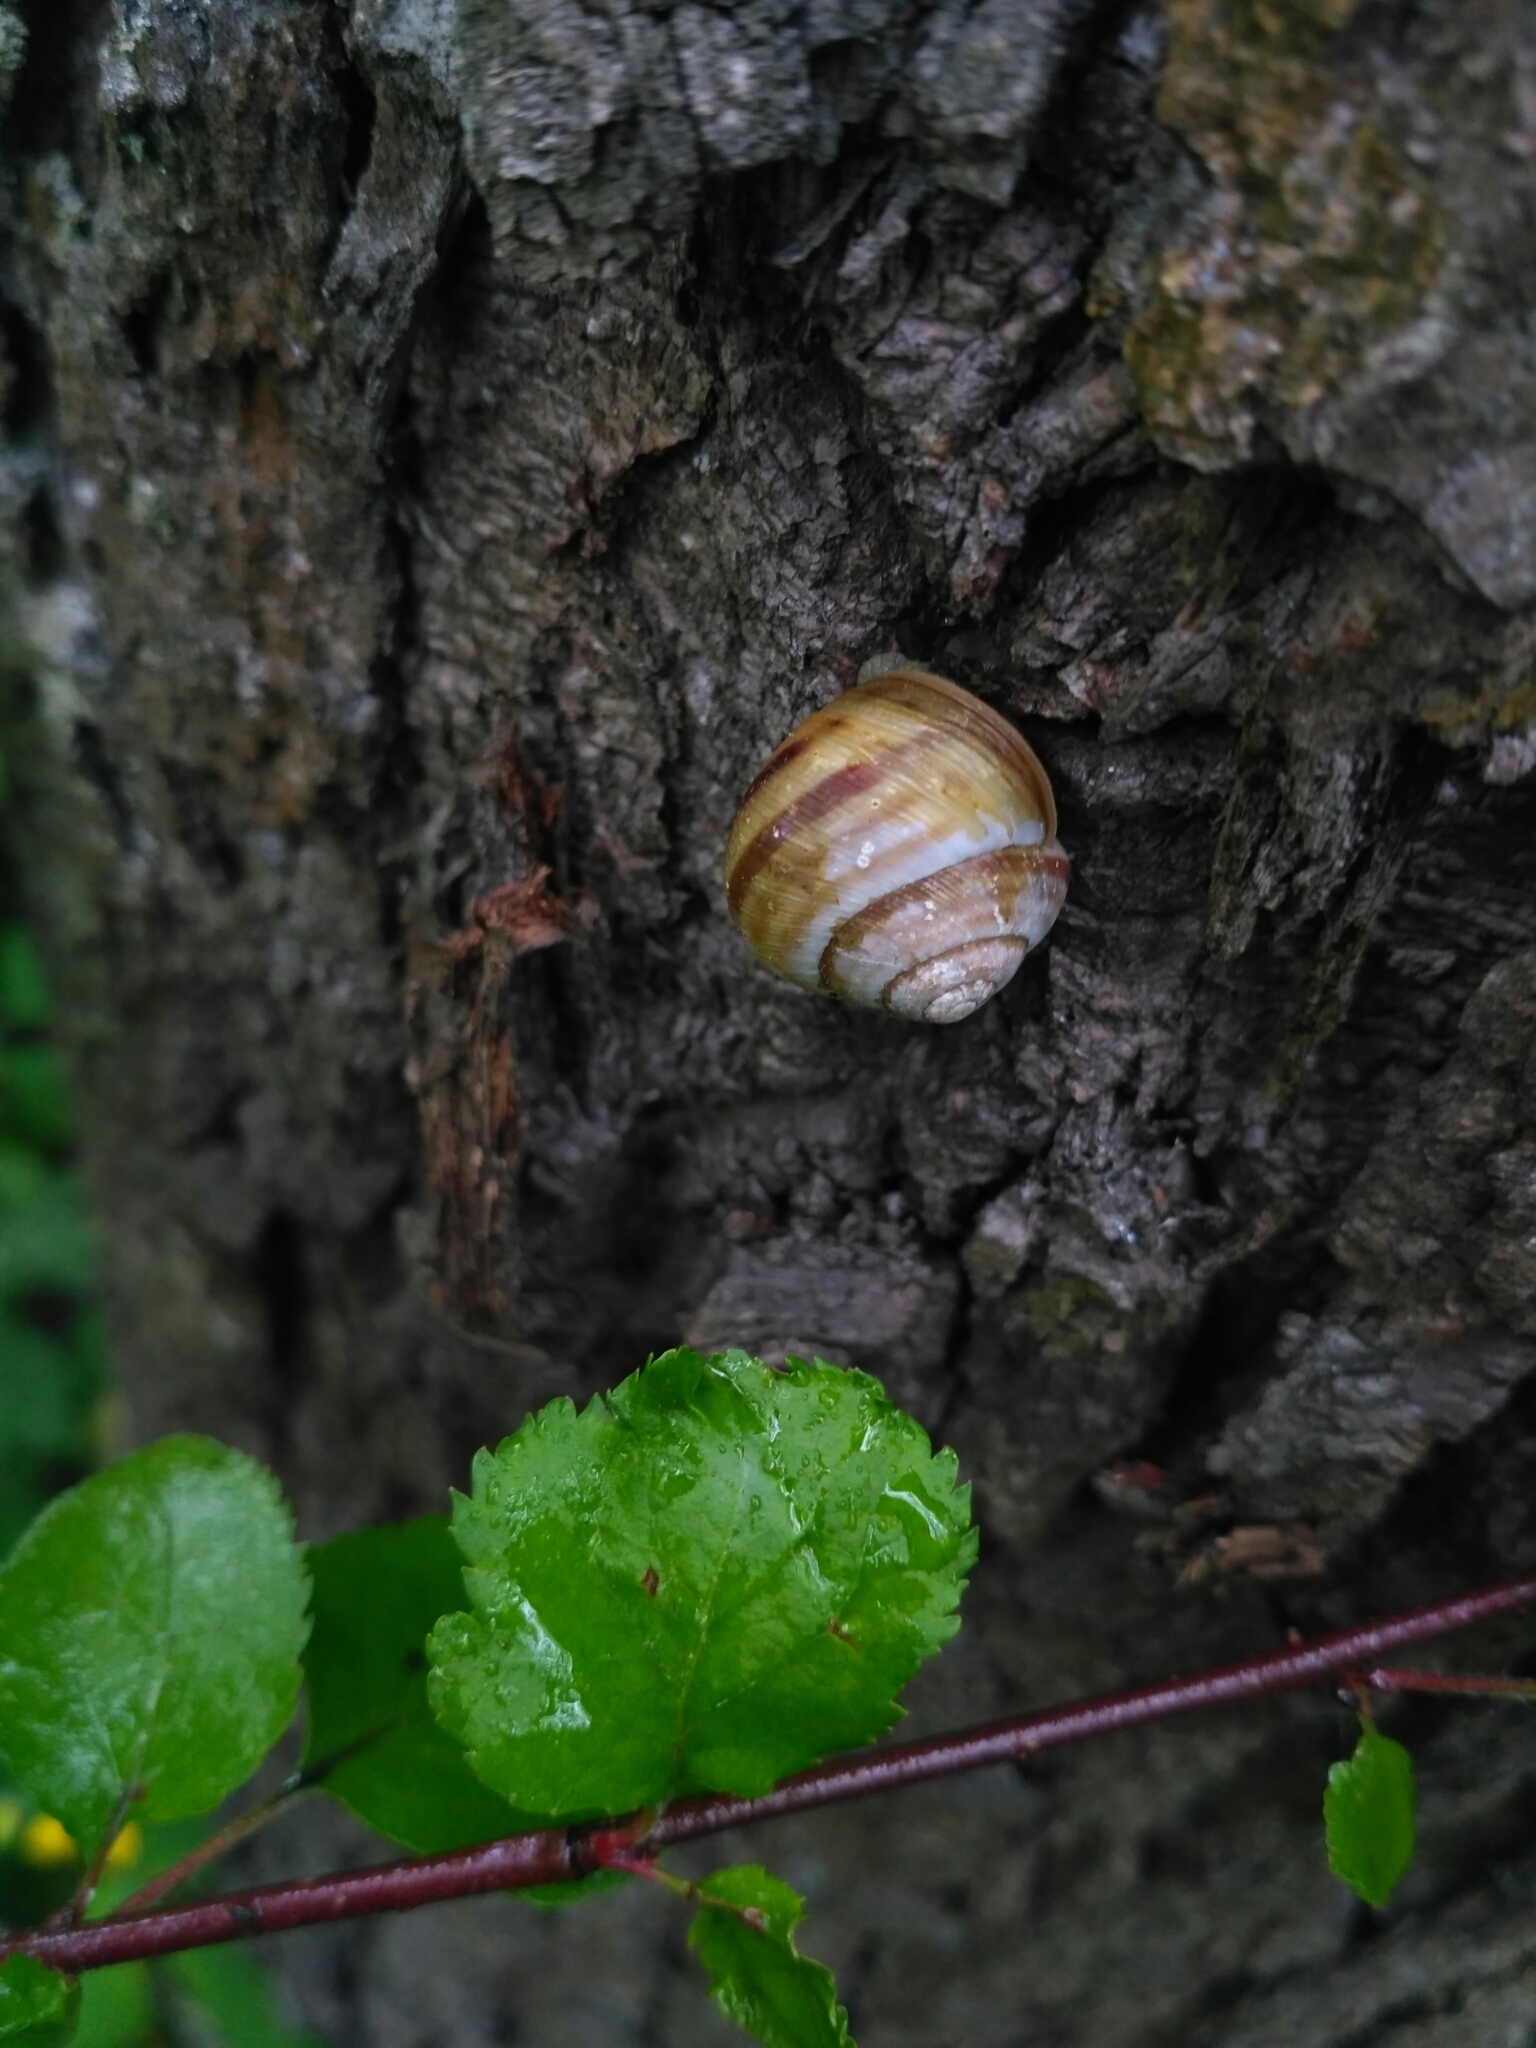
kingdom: Animalia
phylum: Mollusca
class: Gastropoda
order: Stylommatophora
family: Helicidae
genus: Caucasotachea
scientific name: Caucasotachea vindobonensis
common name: European helicid land snail
